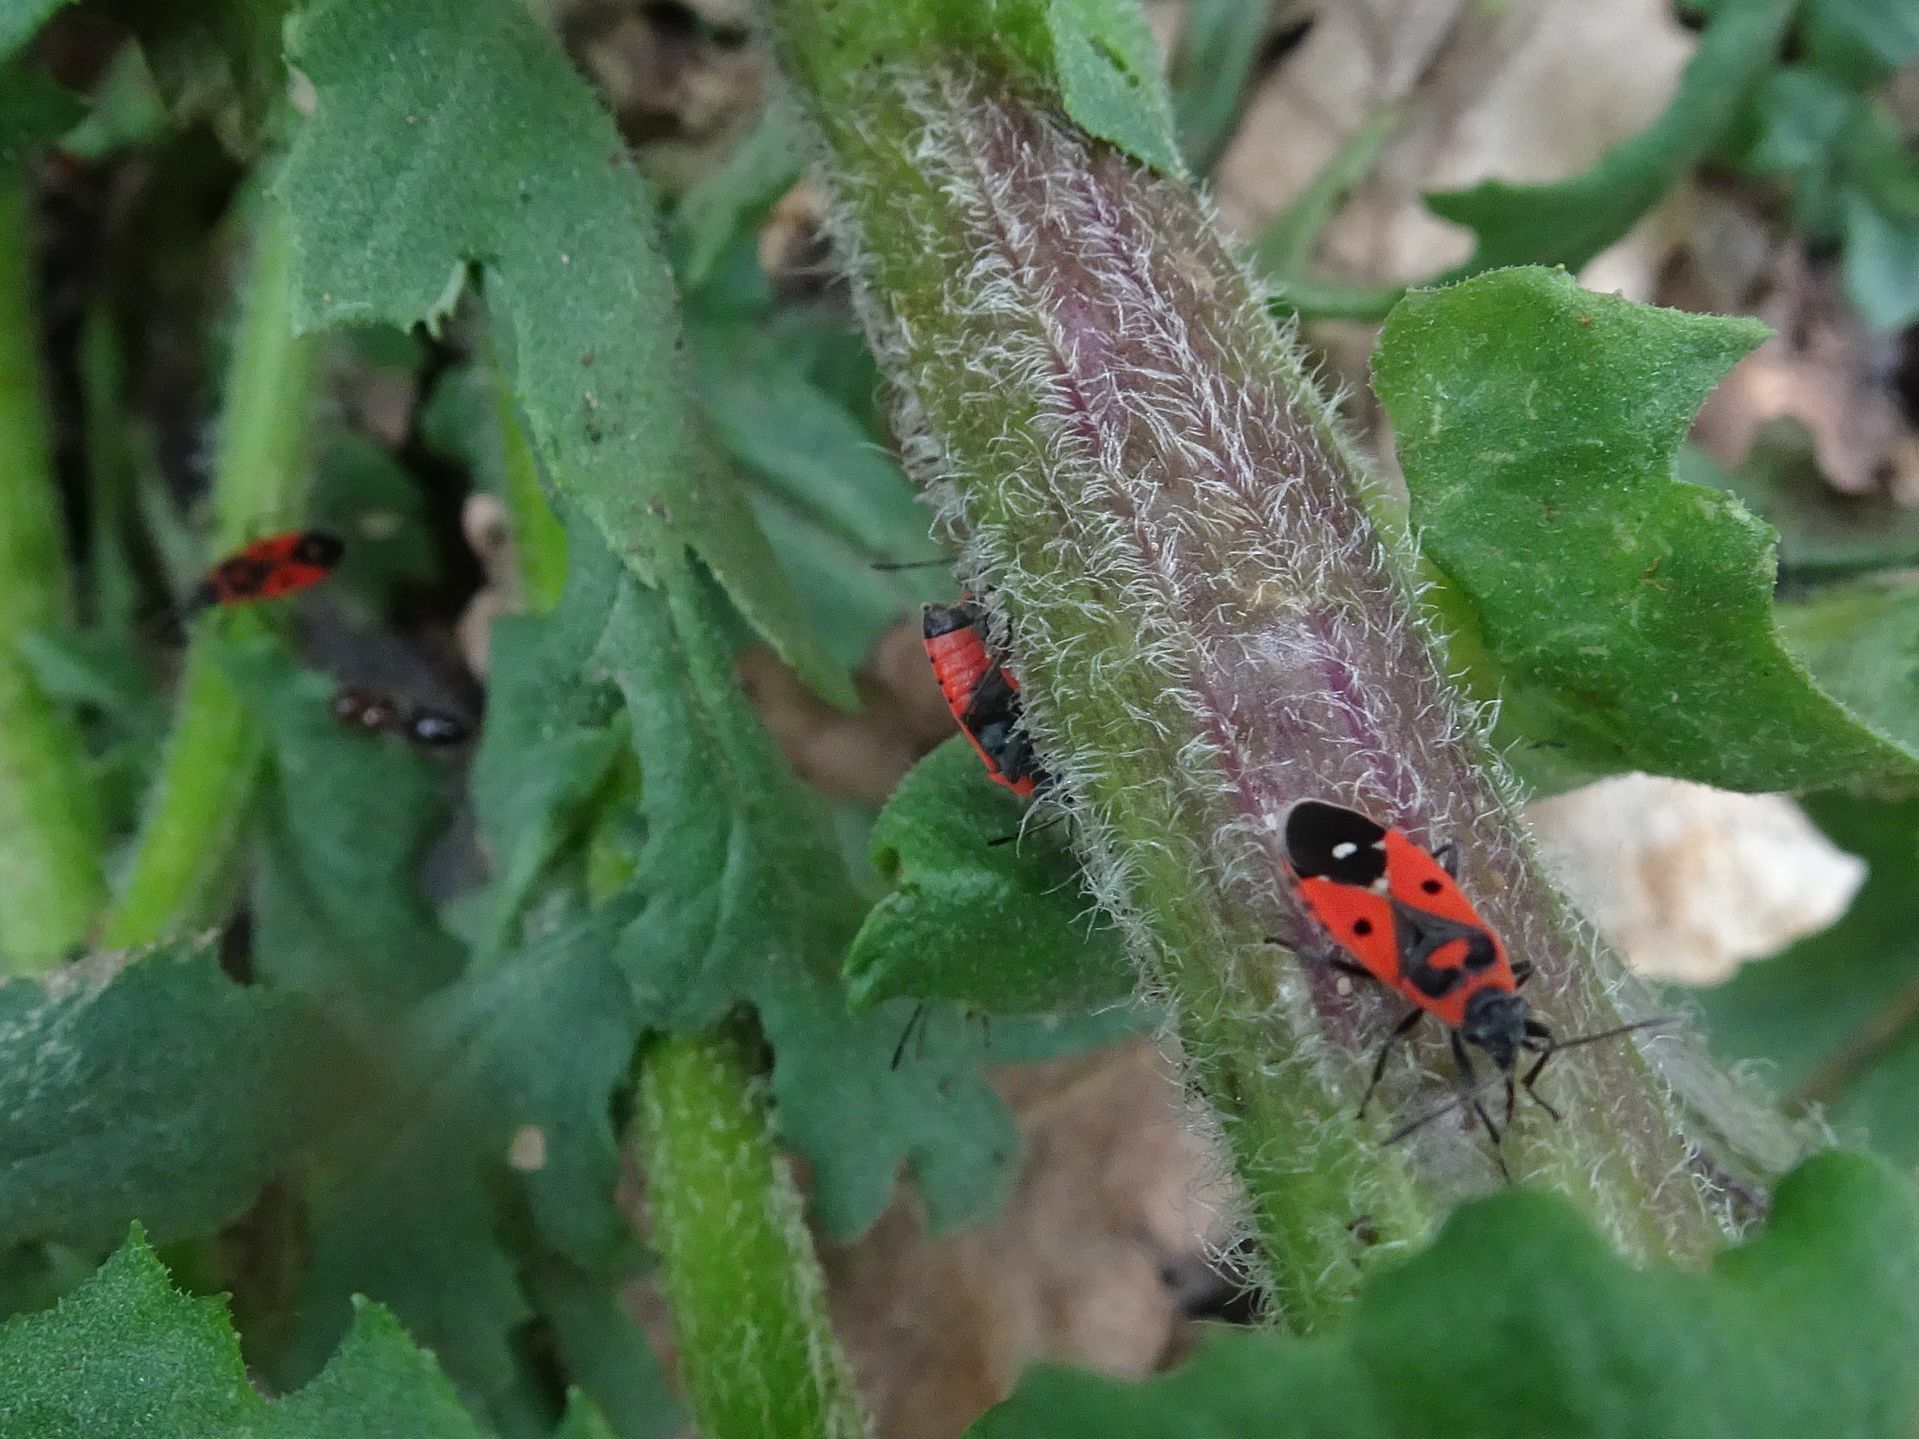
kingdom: Animalia
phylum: Arthropoda
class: Insecta
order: Hemiptera
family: Lygaeidae
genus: Melanocoryphus
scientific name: Melanocoryphus albomaculatus
